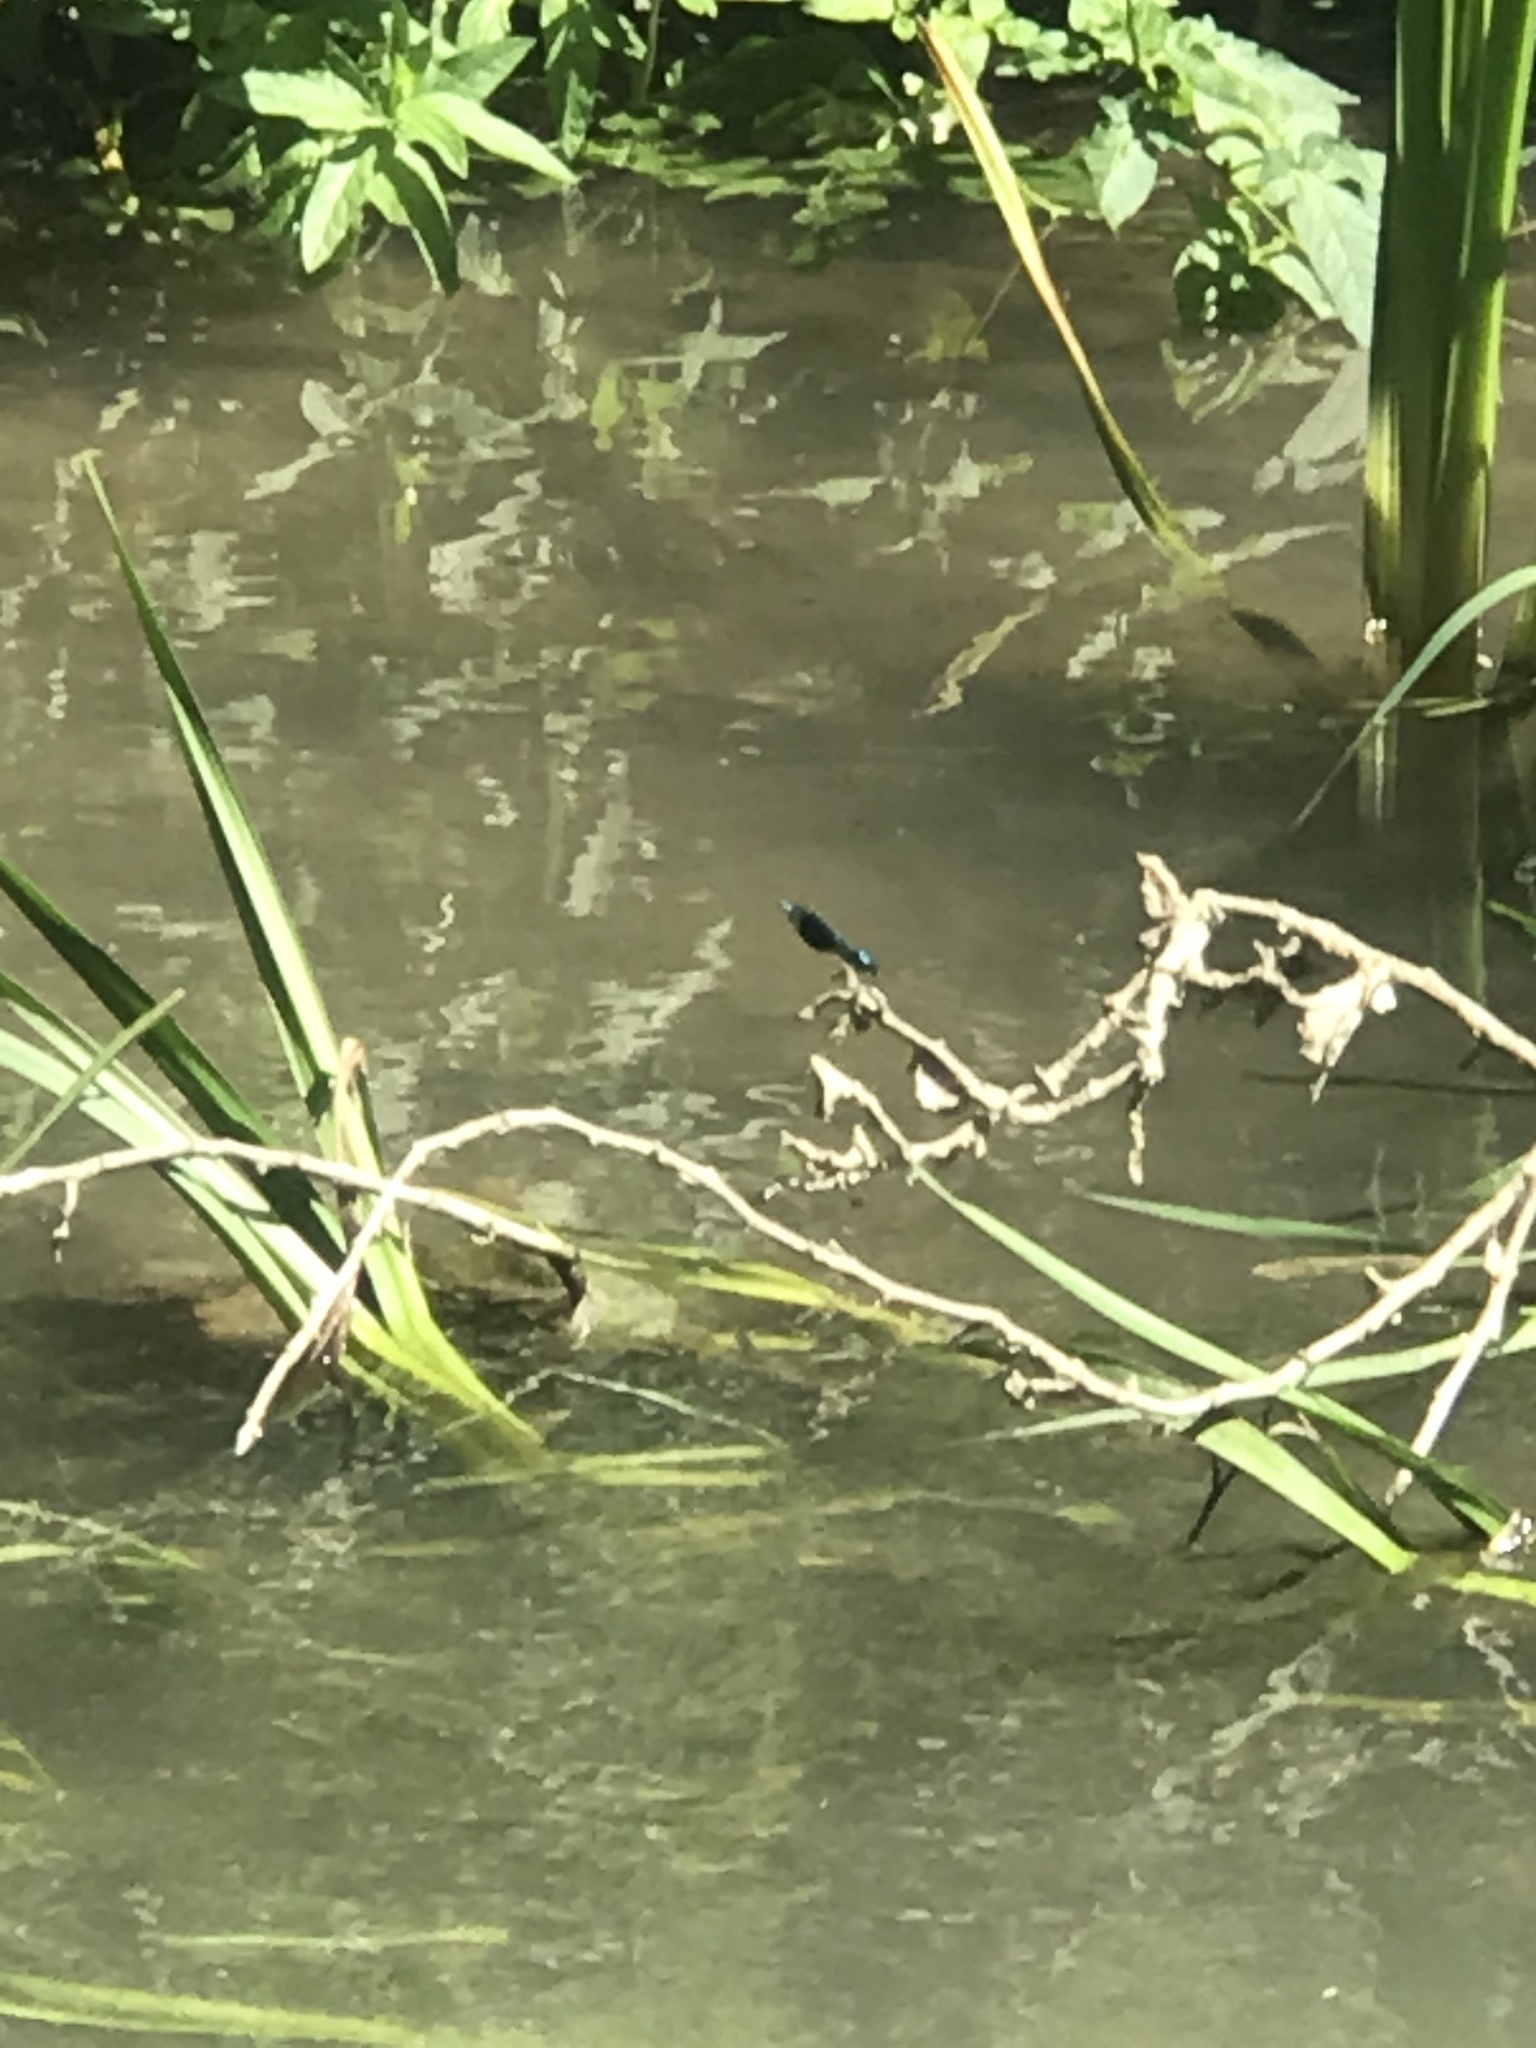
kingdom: Animalia
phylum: Arthropoda
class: Insecta
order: Odonata
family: Calopterygidae
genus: Calopteryx
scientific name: Calopteryx splendens
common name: Banded demoiselle
